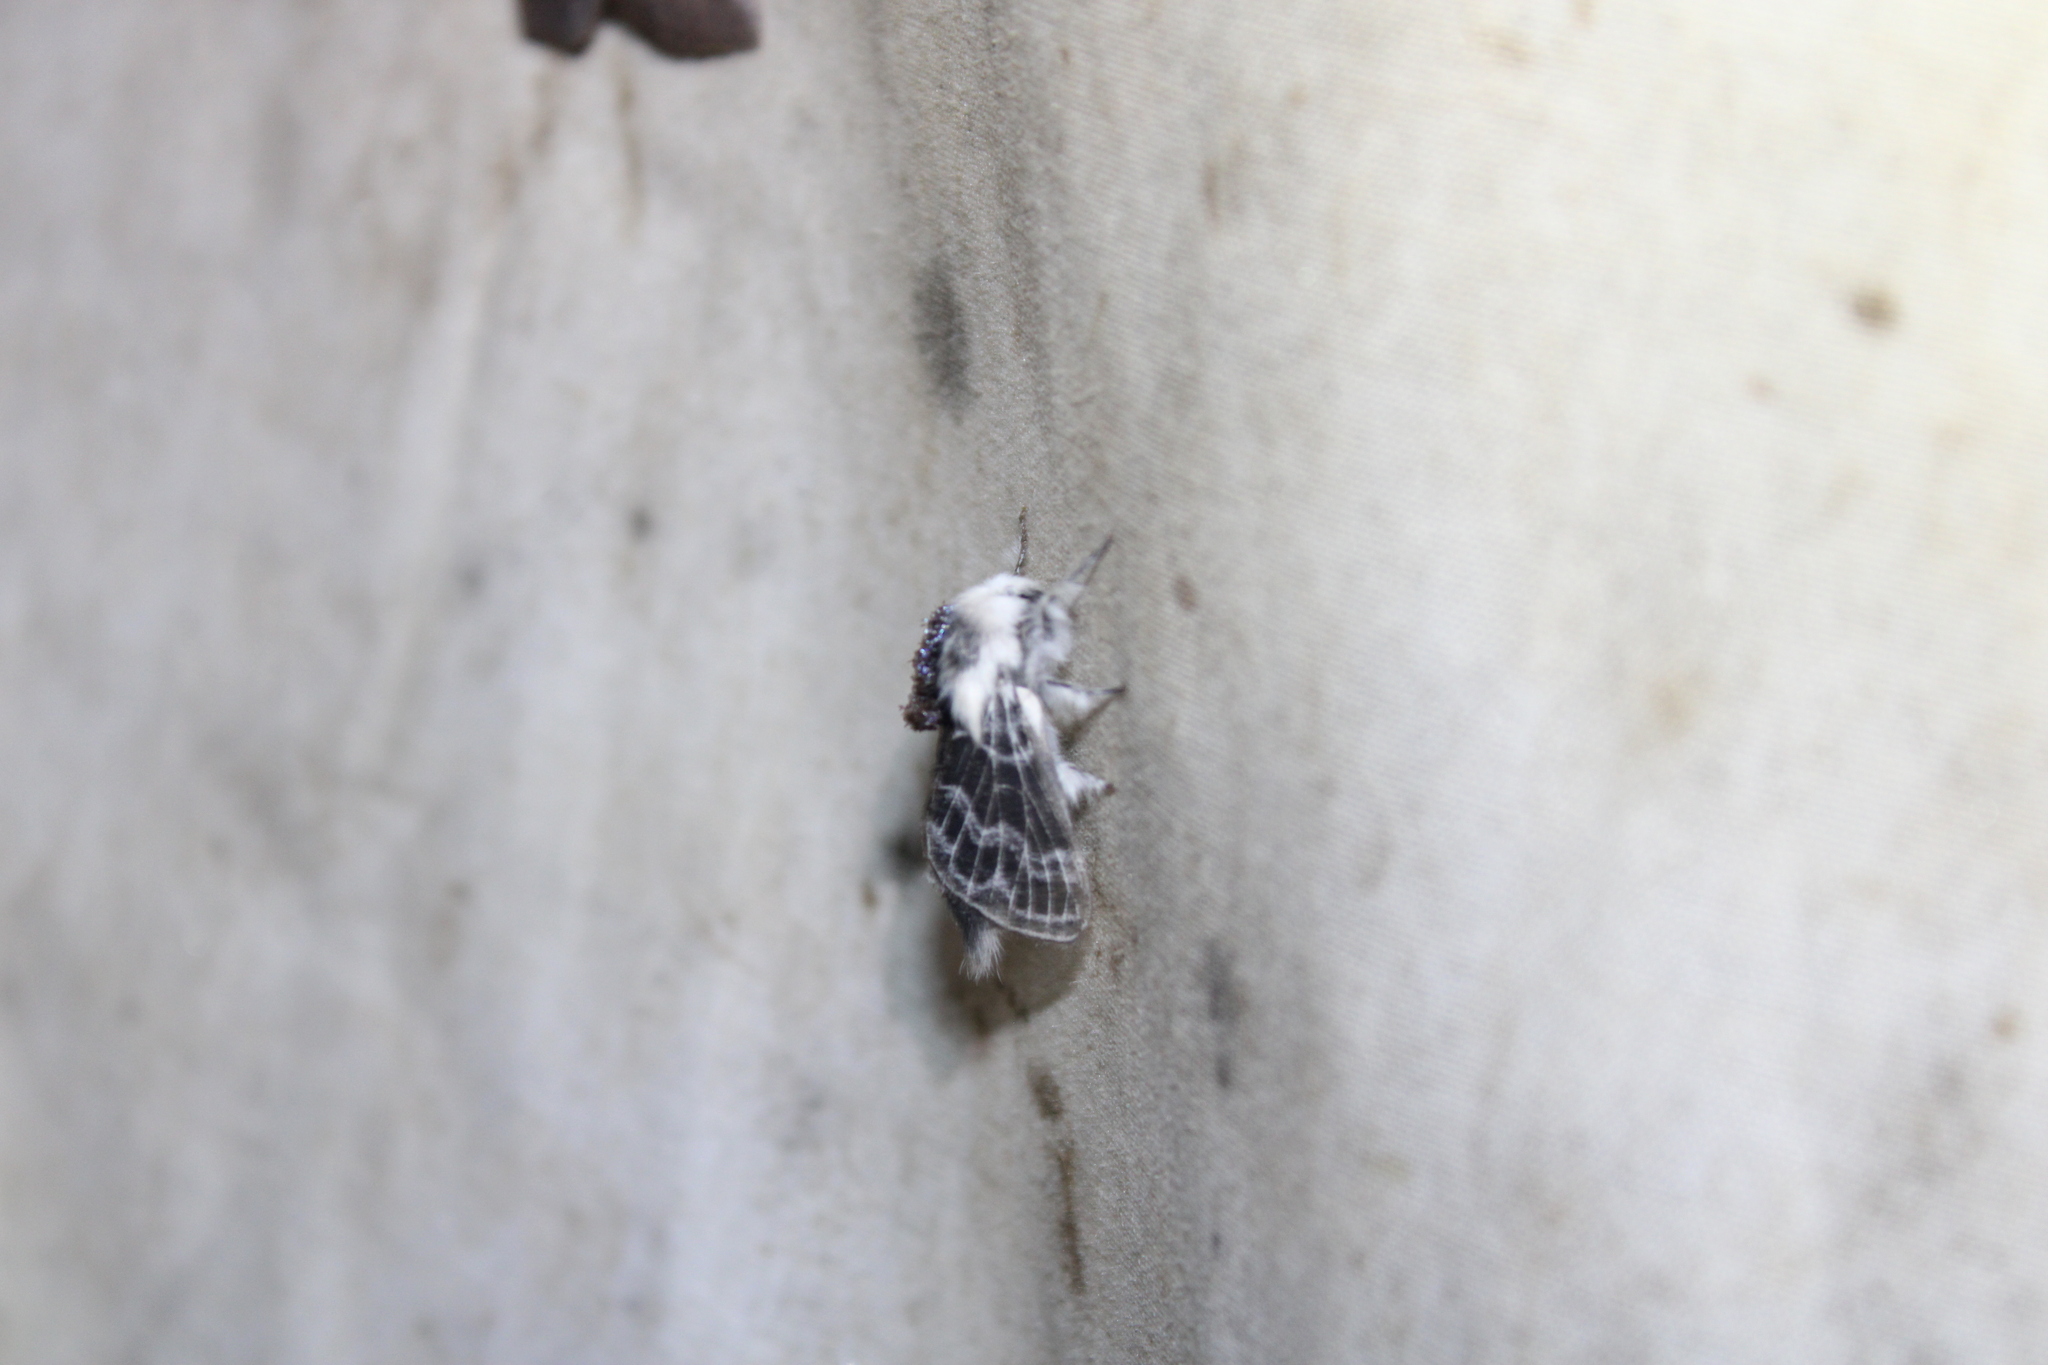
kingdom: Animalia
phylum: Arthropoda
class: Insecta
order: Lepidoptera
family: Lasiocampidae
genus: Tolype
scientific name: Tolype velleda
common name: Large tolype moth
